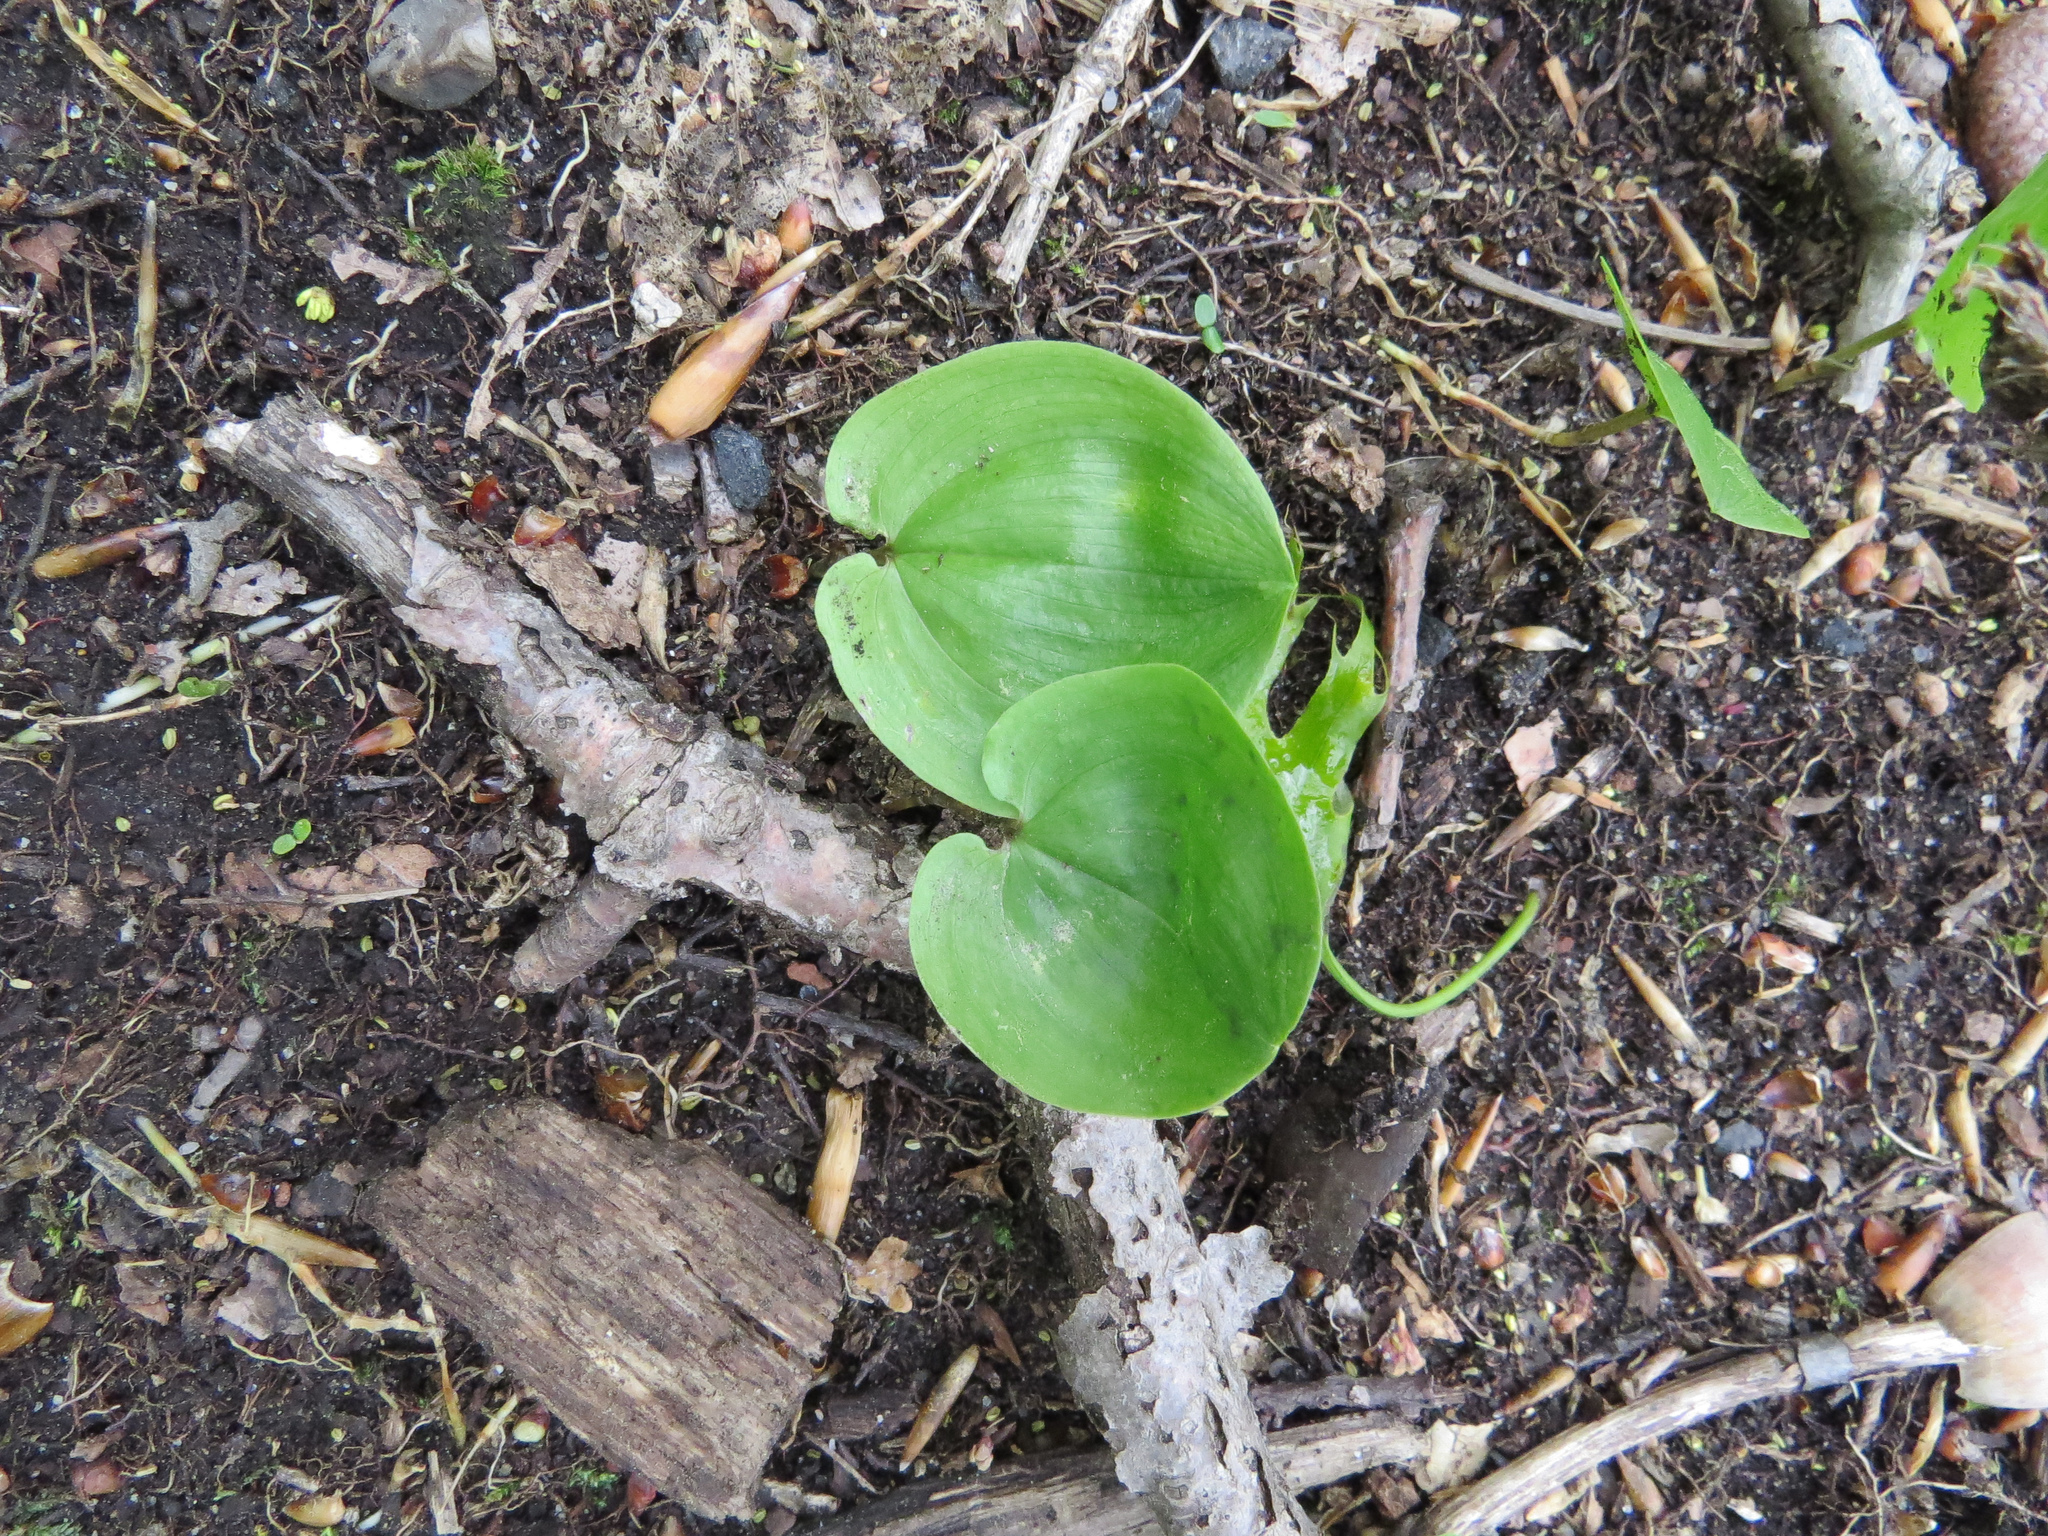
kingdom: Plantae
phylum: Tracheophyta
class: Liliopsida
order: Asparagales
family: Asparagaceae
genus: Maianthemum
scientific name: Maianthemum canadense
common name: False lily-of-the-valley
